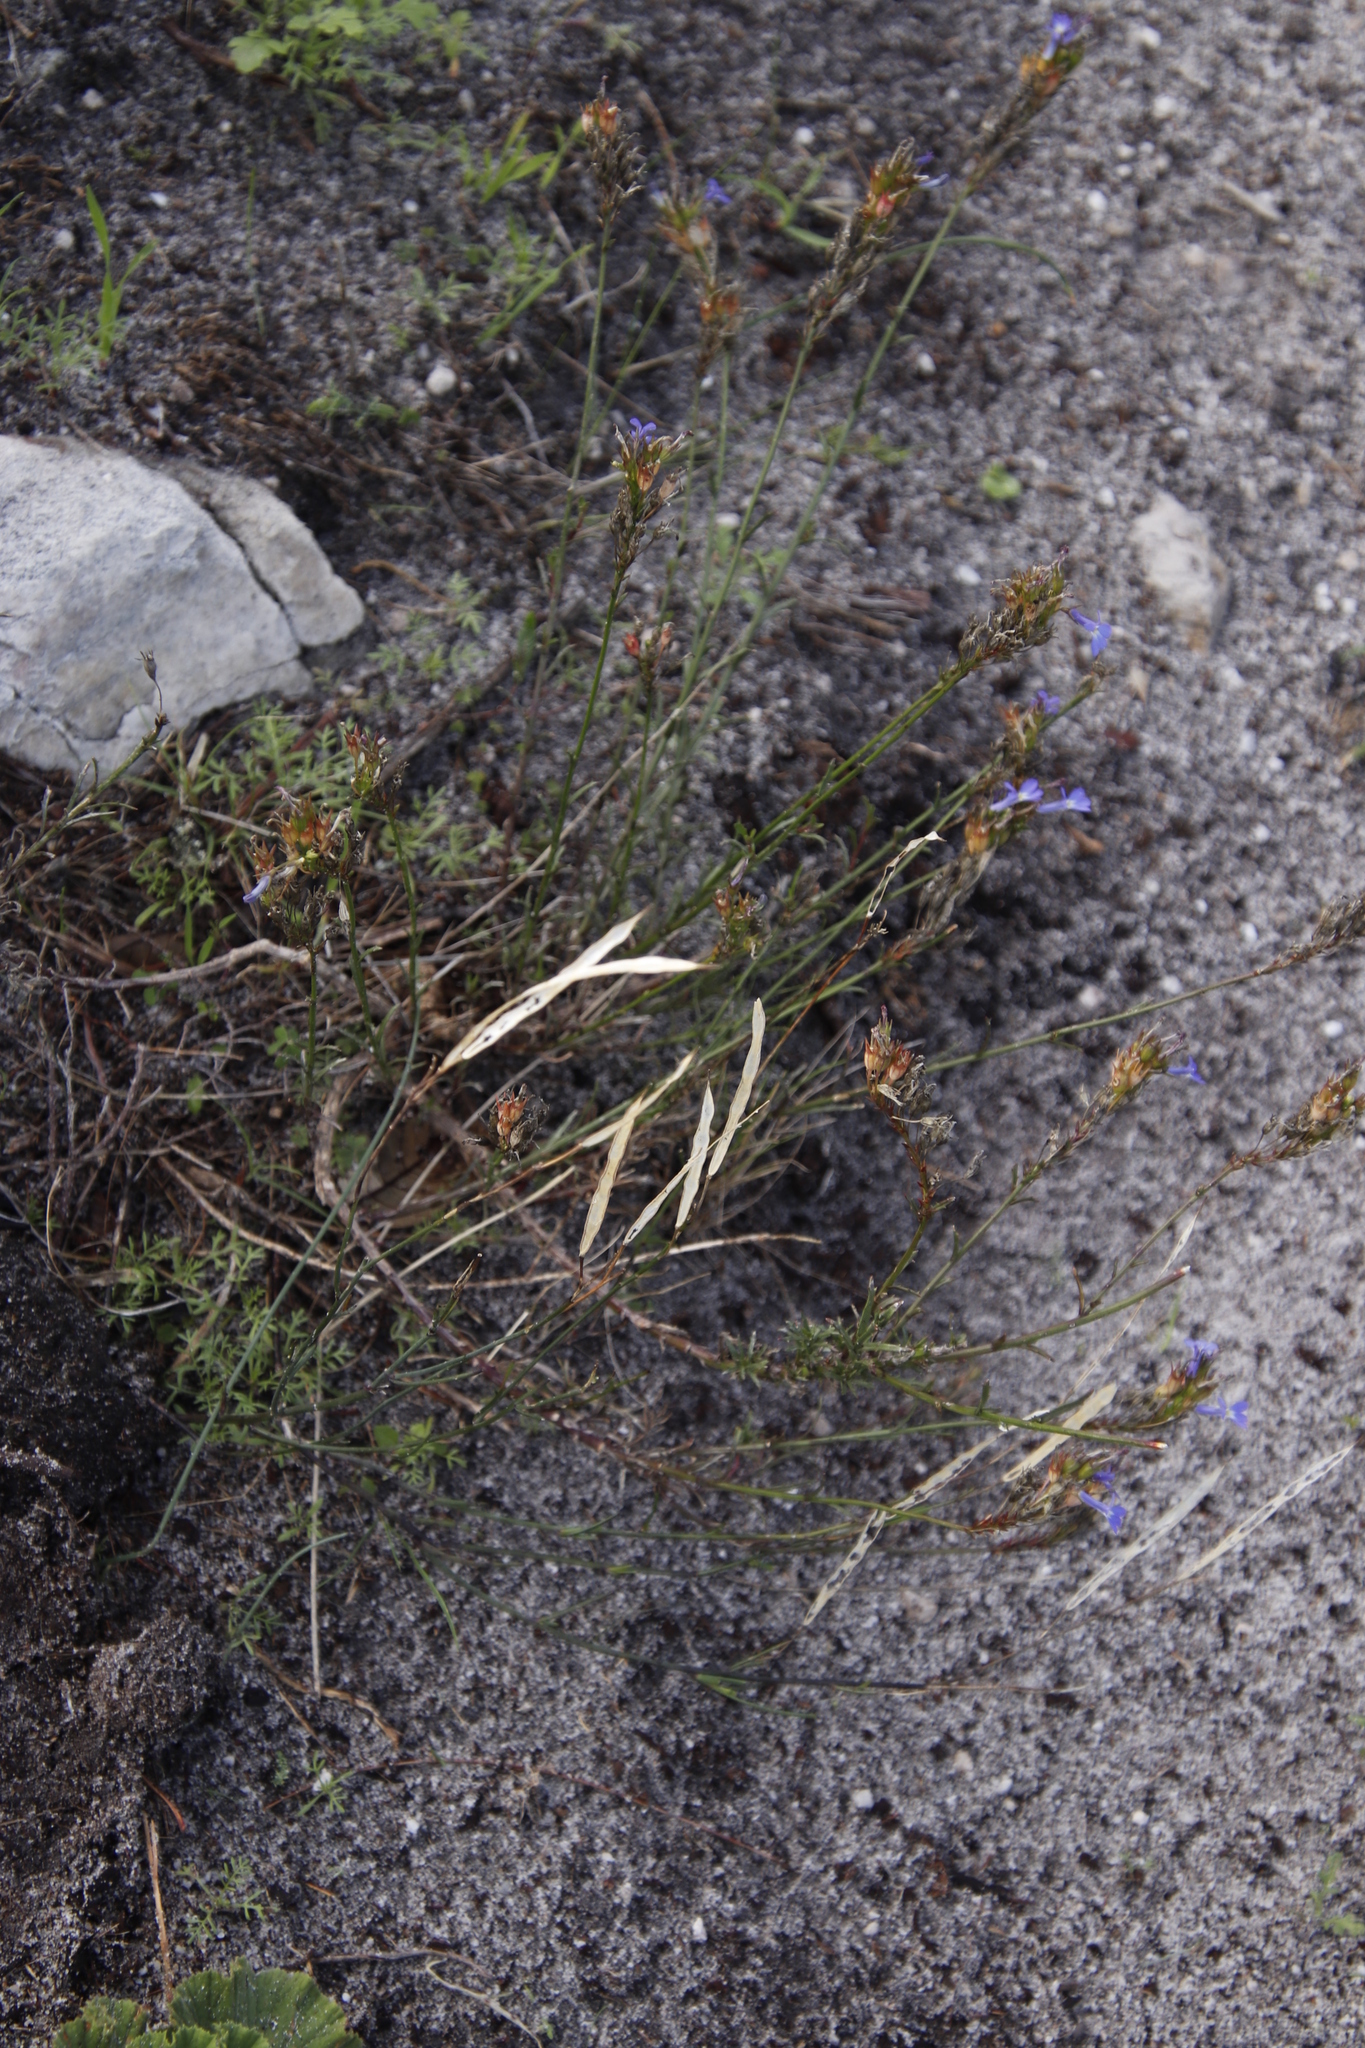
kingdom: Plantae
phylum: Tracheophyta
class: Magnoliopsida
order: Brassicales
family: Brassicaceae
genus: Heliophila
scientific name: Heliophila linearis
